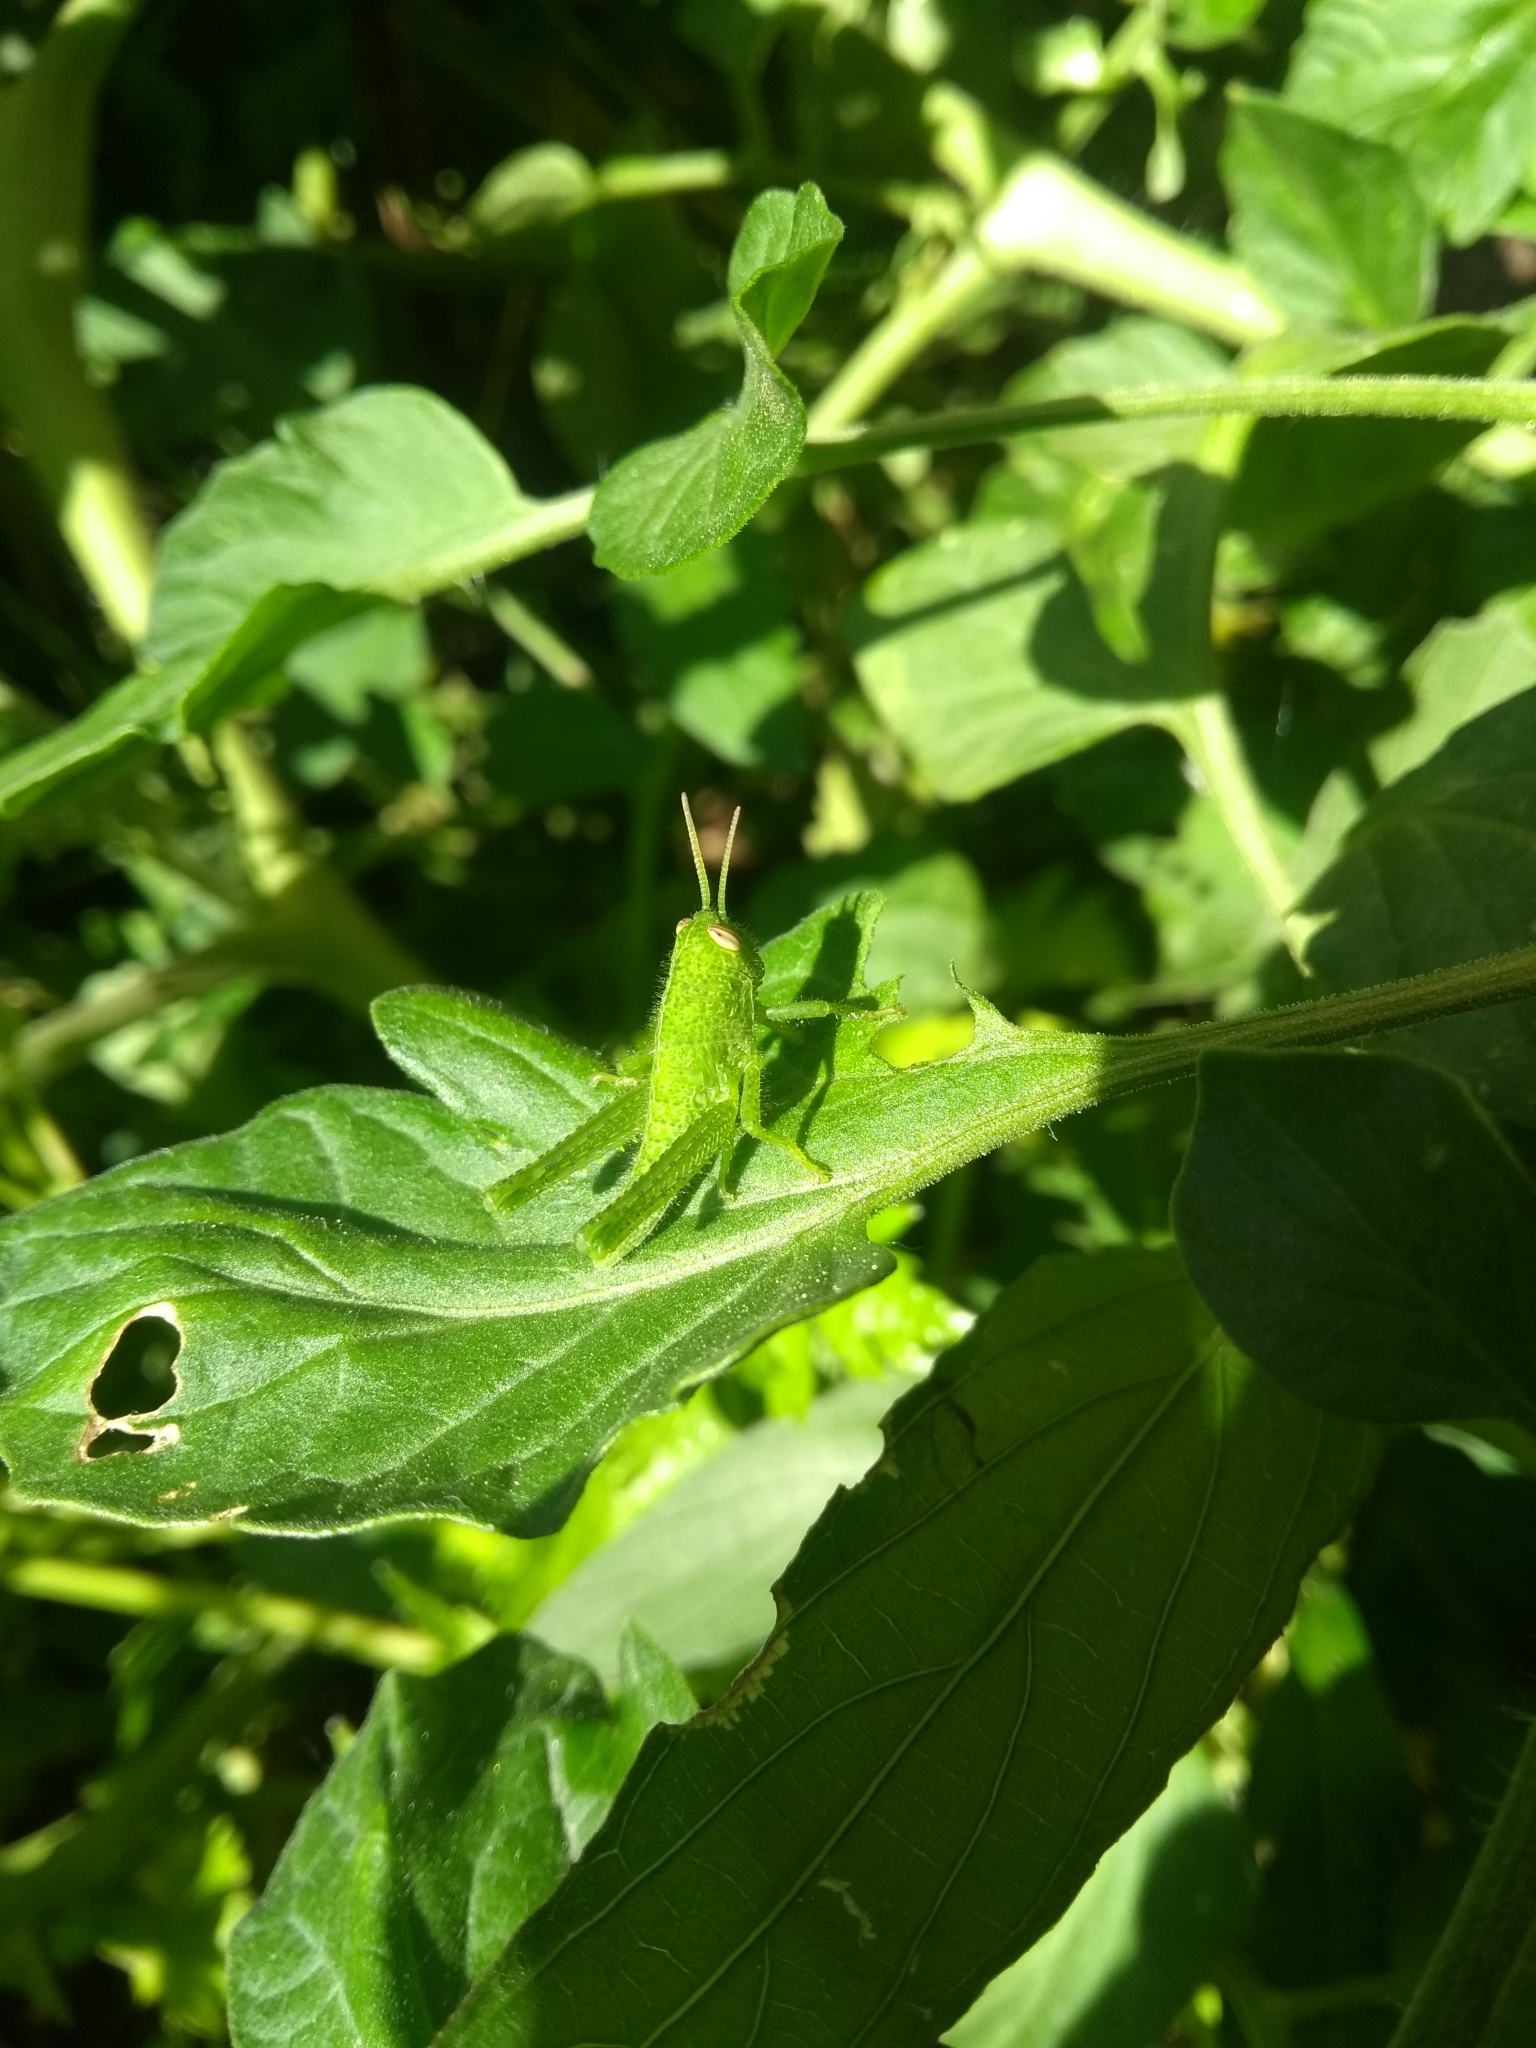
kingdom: Animalia
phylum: Arthropoda
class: Insecta
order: Orthoptera
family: Acrididae
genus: Schistocerca
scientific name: Schistocerca flavofasciata
